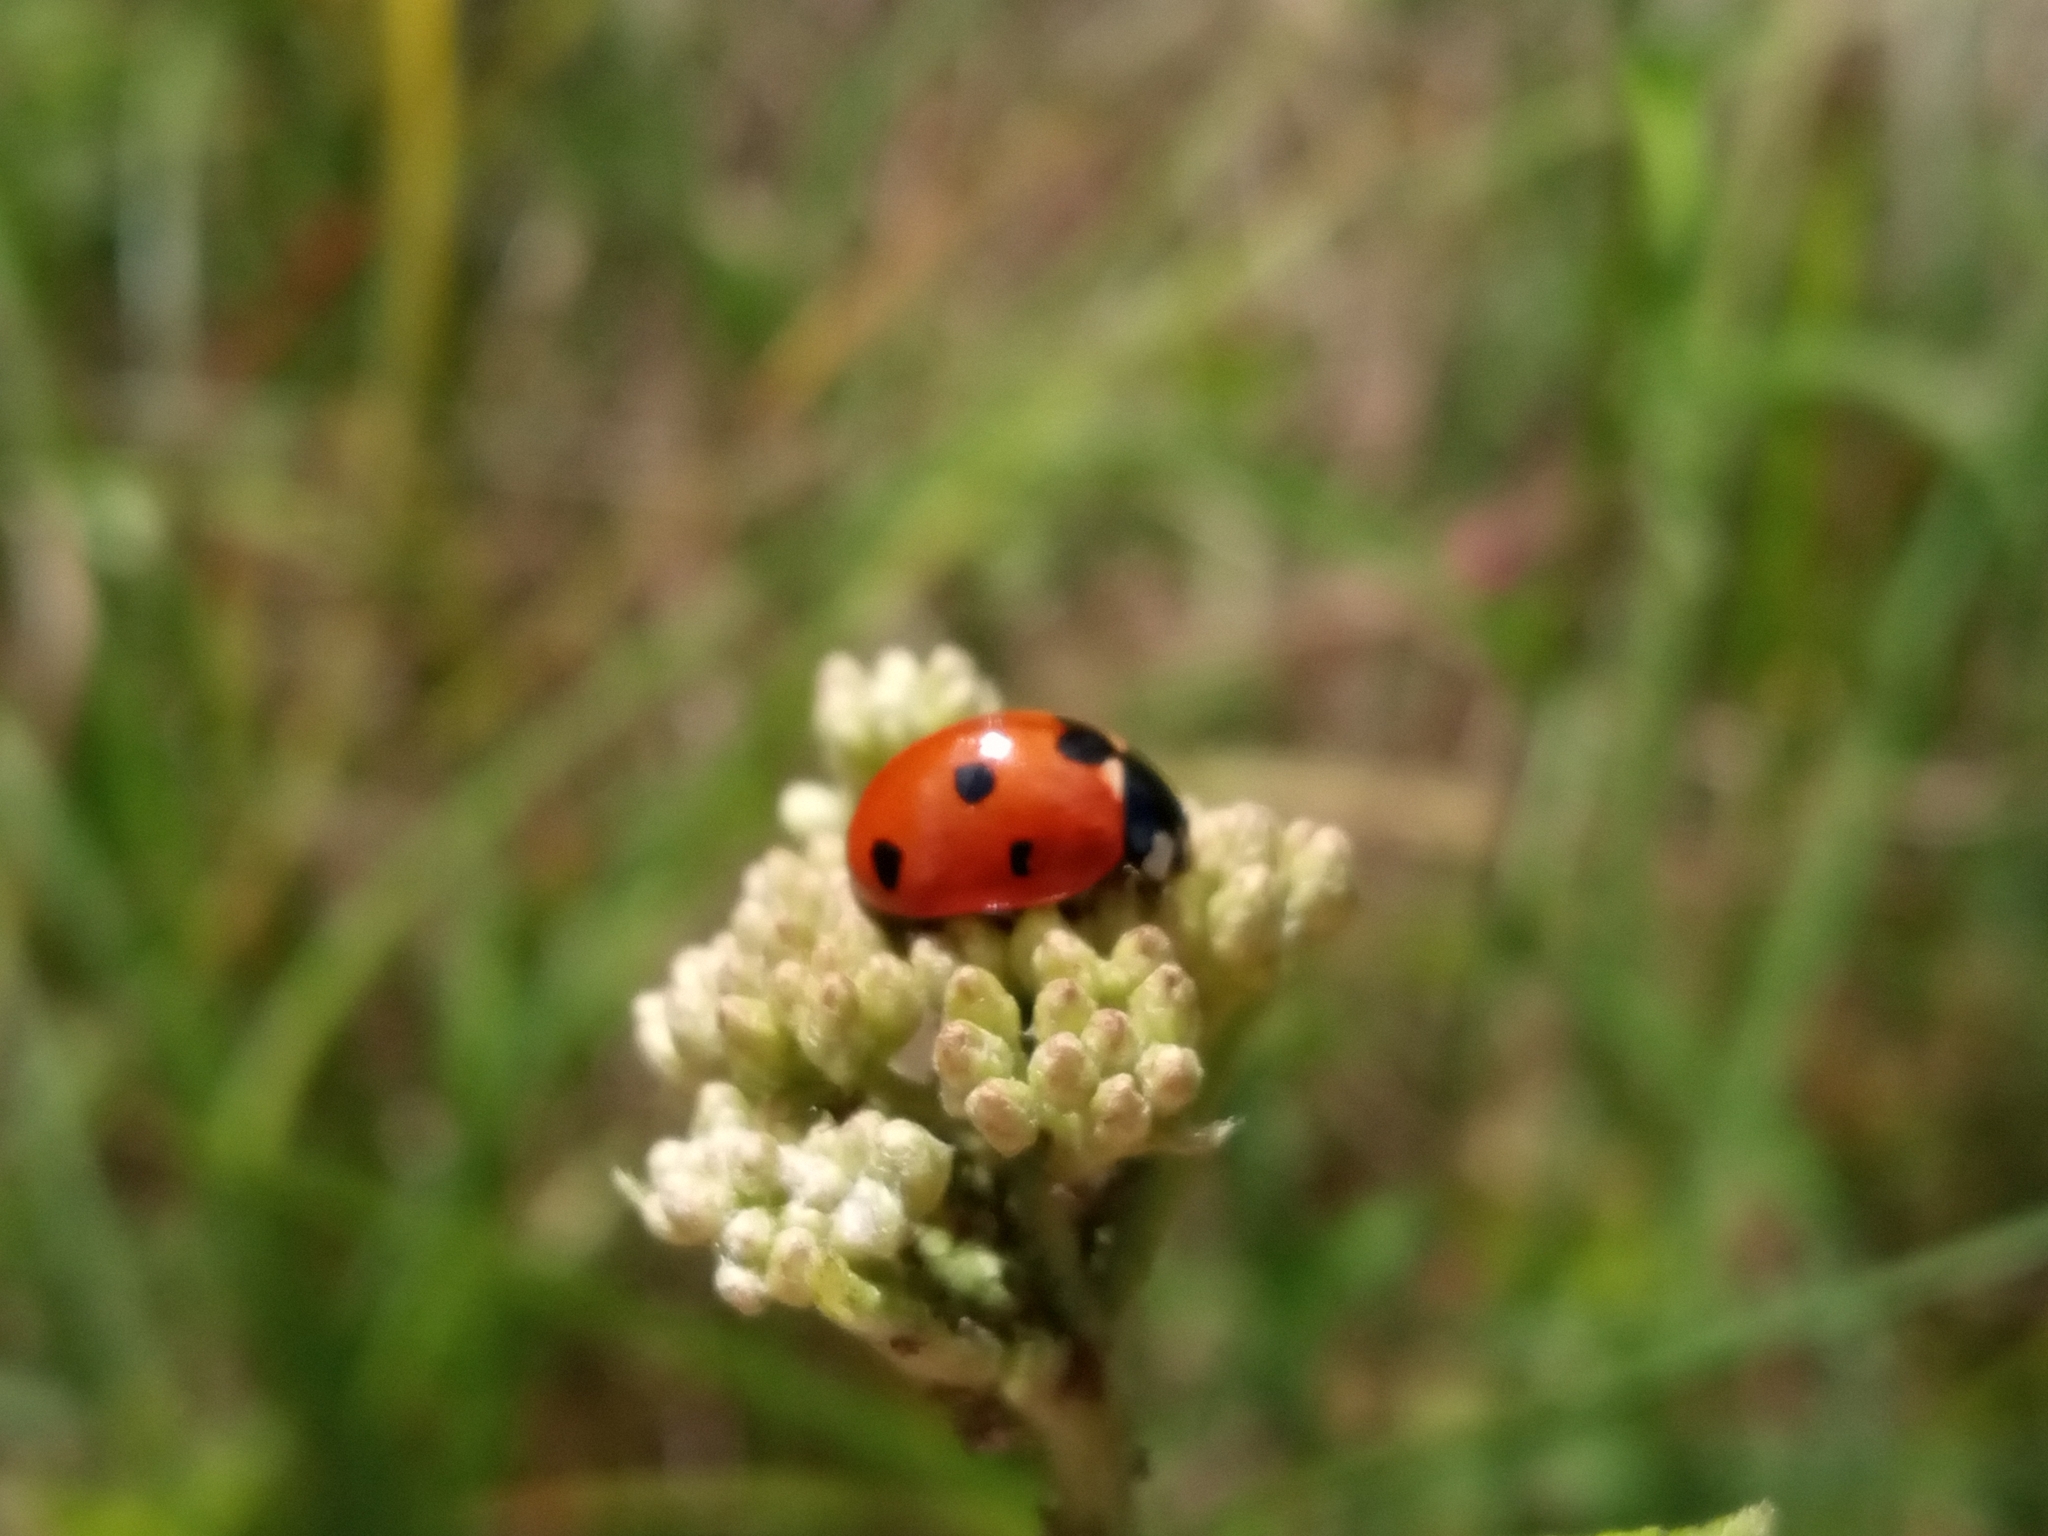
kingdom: Animalia
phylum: Arthropoda
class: Insecta
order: Coleoptera
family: Coccinellidae
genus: Coccinella
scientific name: Coccinella septempunctata
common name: Sevenspotted lady beetle
